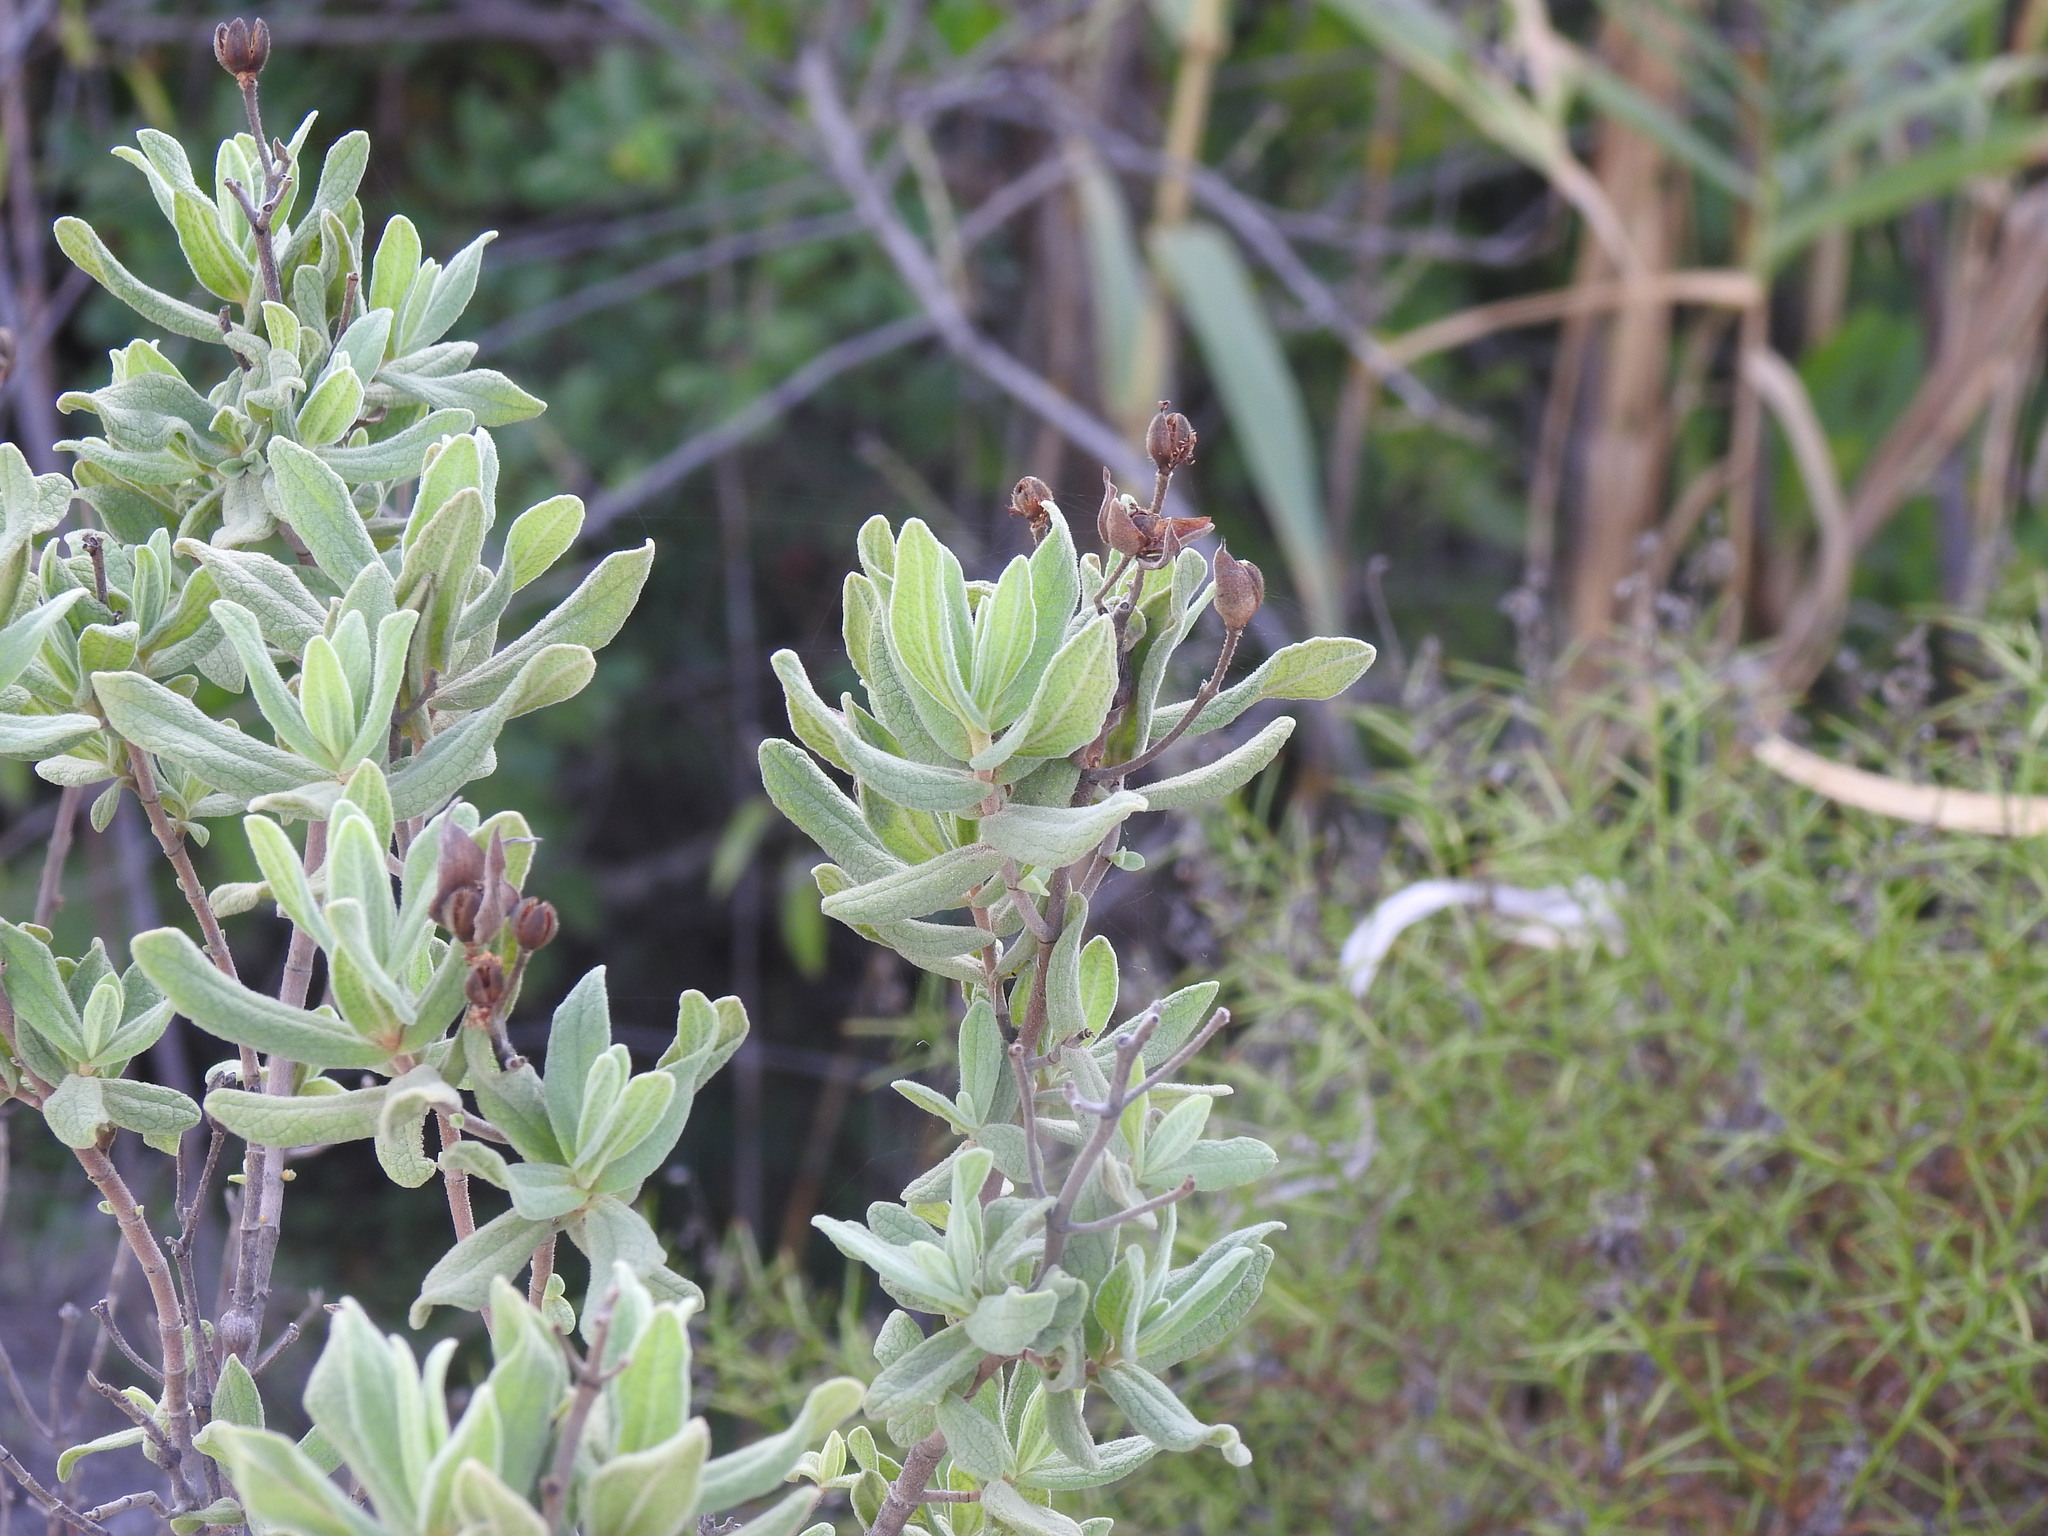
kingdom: Plantae
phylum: Tracheophyta
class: Magnoliopsida
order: Malvales
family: Cistaceae
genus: Cistus
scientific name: Cistus albidus
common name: White-leaf rock-rose
